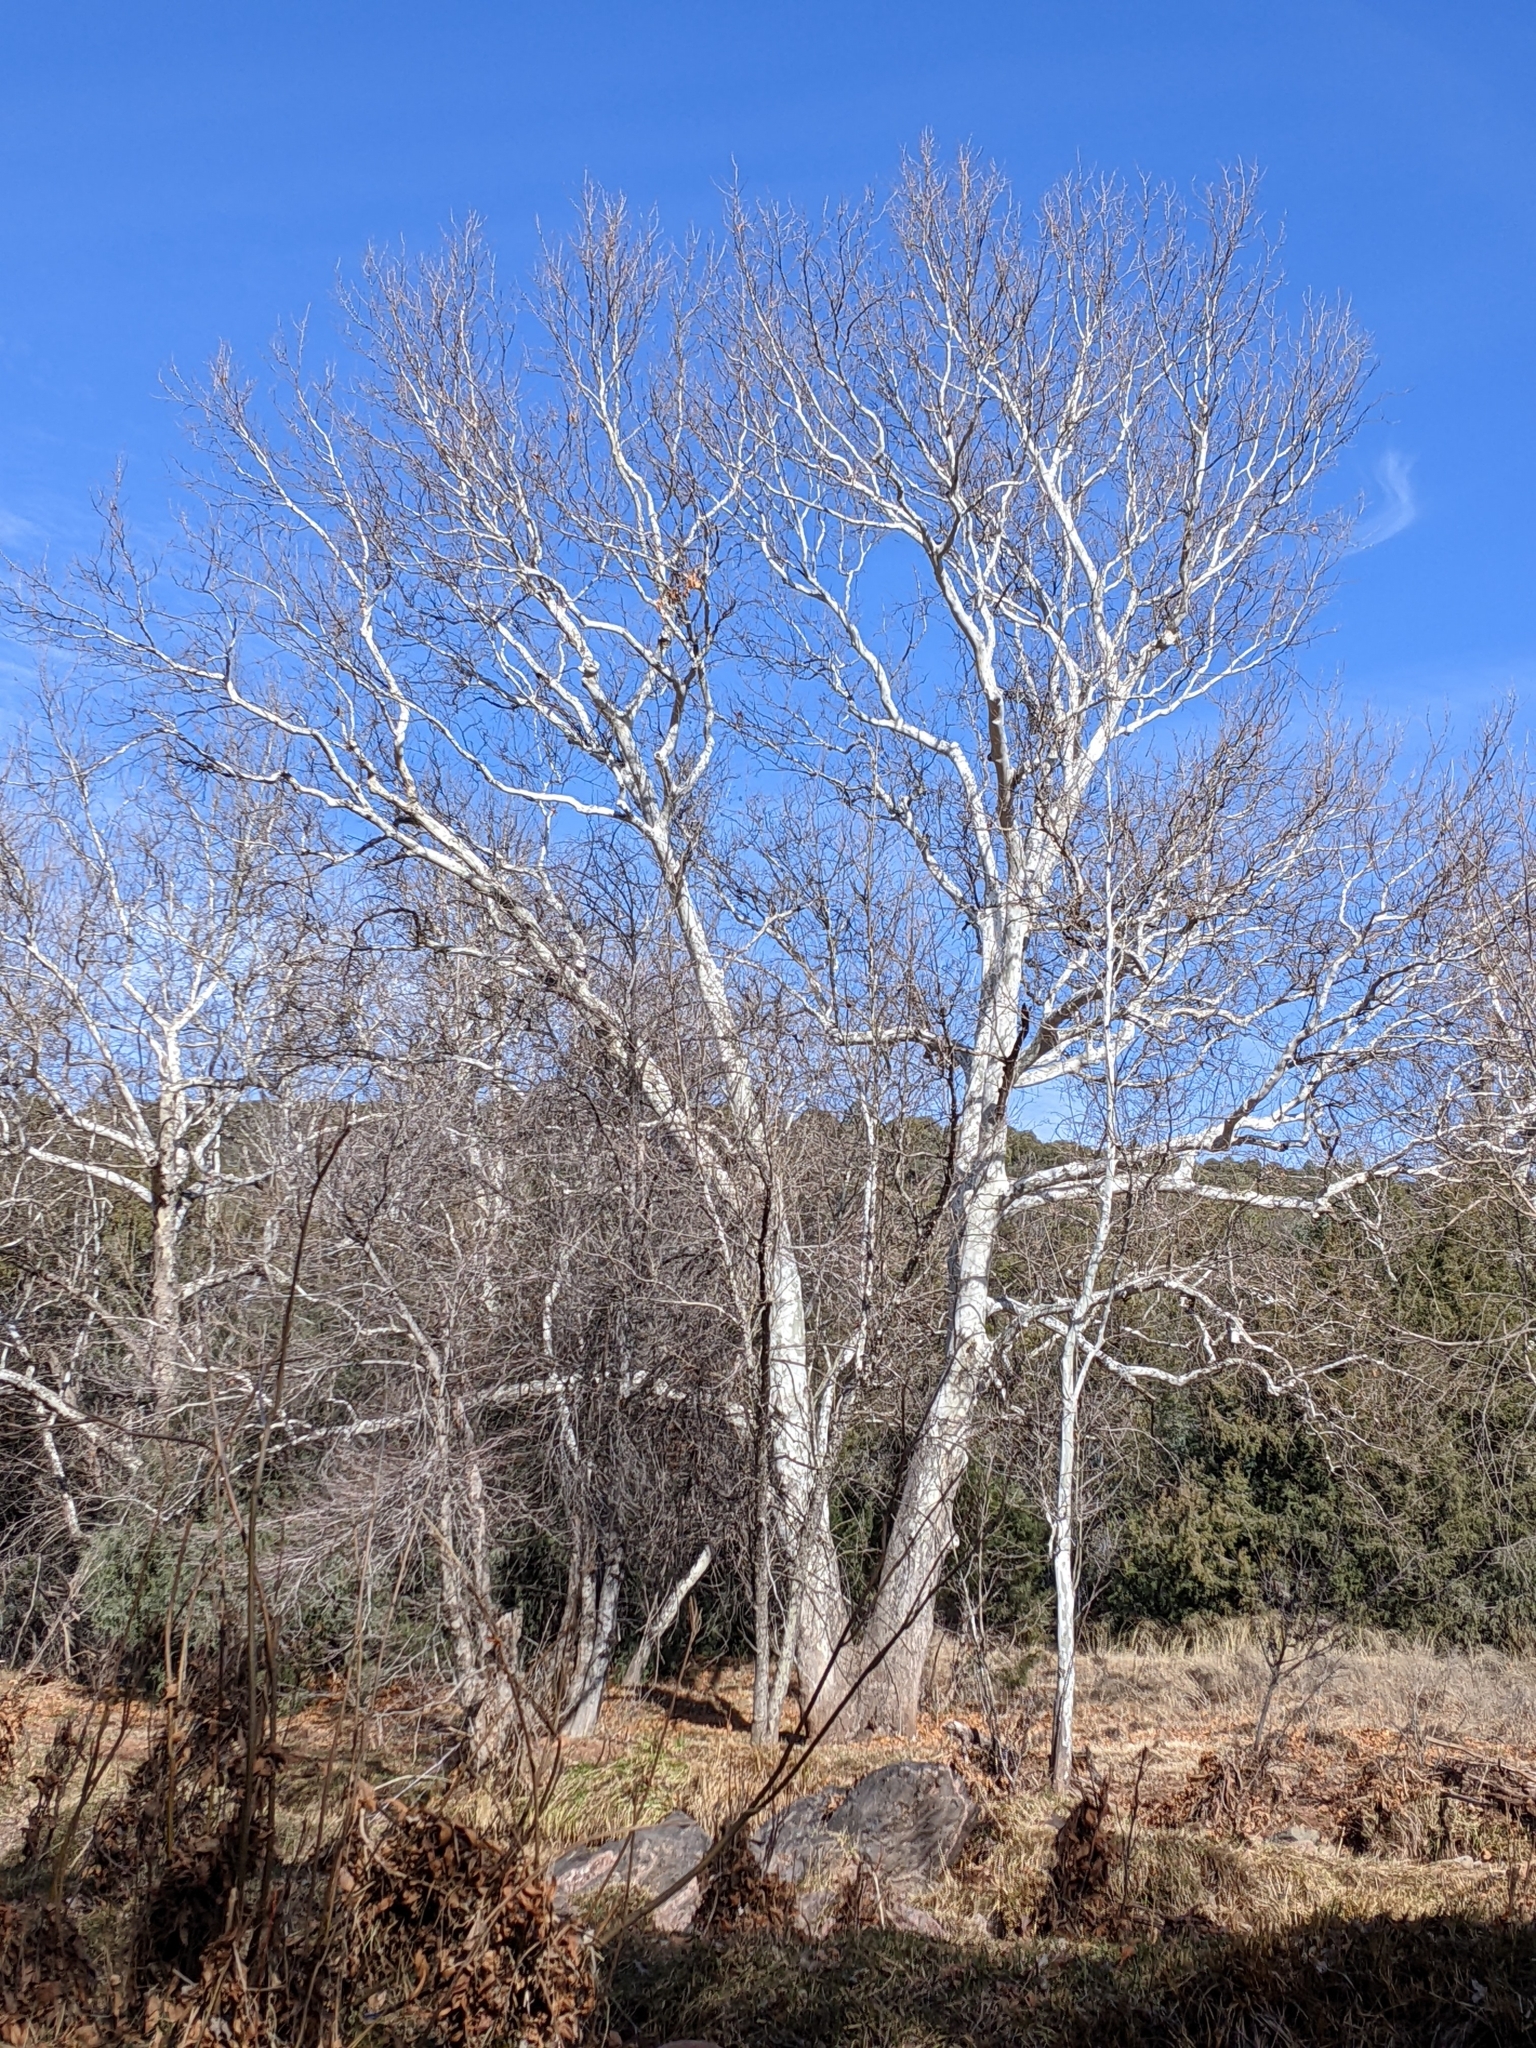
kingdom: Plantae
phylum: Tracheophyta
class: Magnoliopsida
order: Proteales
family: Platanaceae
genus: Platanus
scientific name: Platanus wrightii
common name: Arizona sycamore
